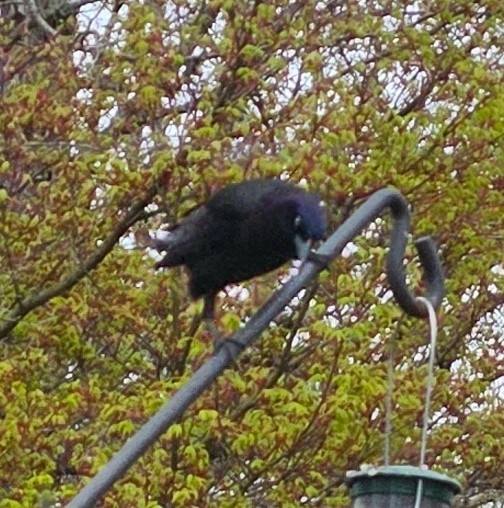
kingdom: Animalia
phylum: Chordata
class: Aves
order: Passeriformes
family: Icteridae
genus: Quiscalus
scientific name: Quiscalus quiscula
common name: Common grackle
